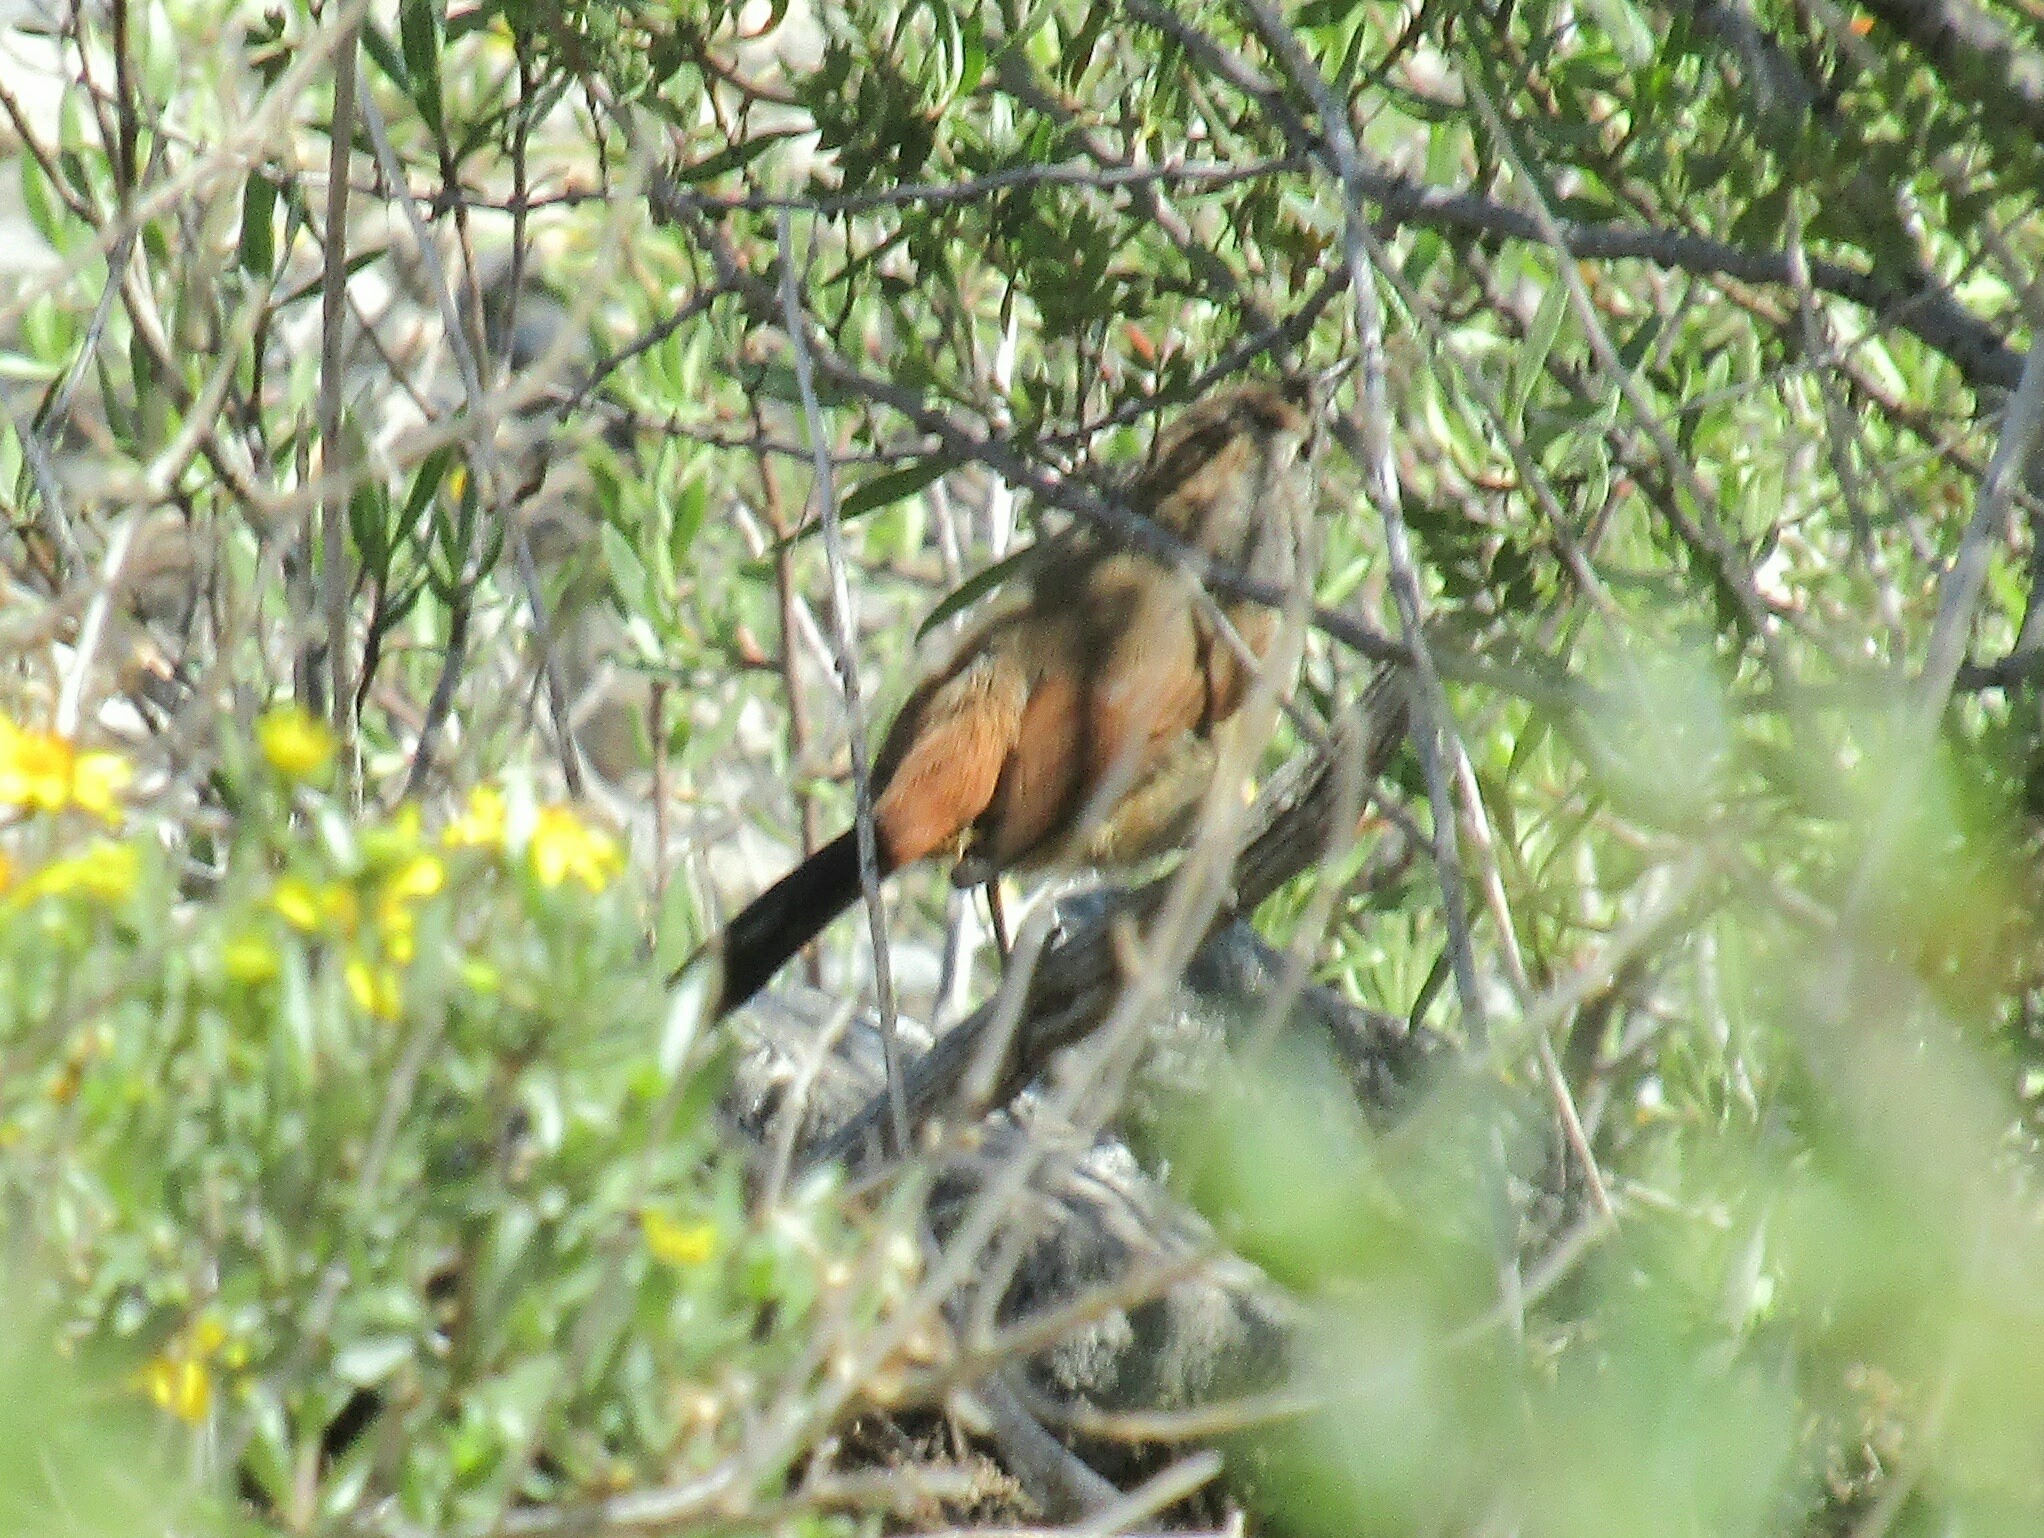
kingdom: Animalia
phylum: Chordata
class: Aves
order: Passeriformes
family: Furnariidae
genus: Asthenes
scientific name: Asthenes dorbignyi
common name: Rusty-vented canastero
